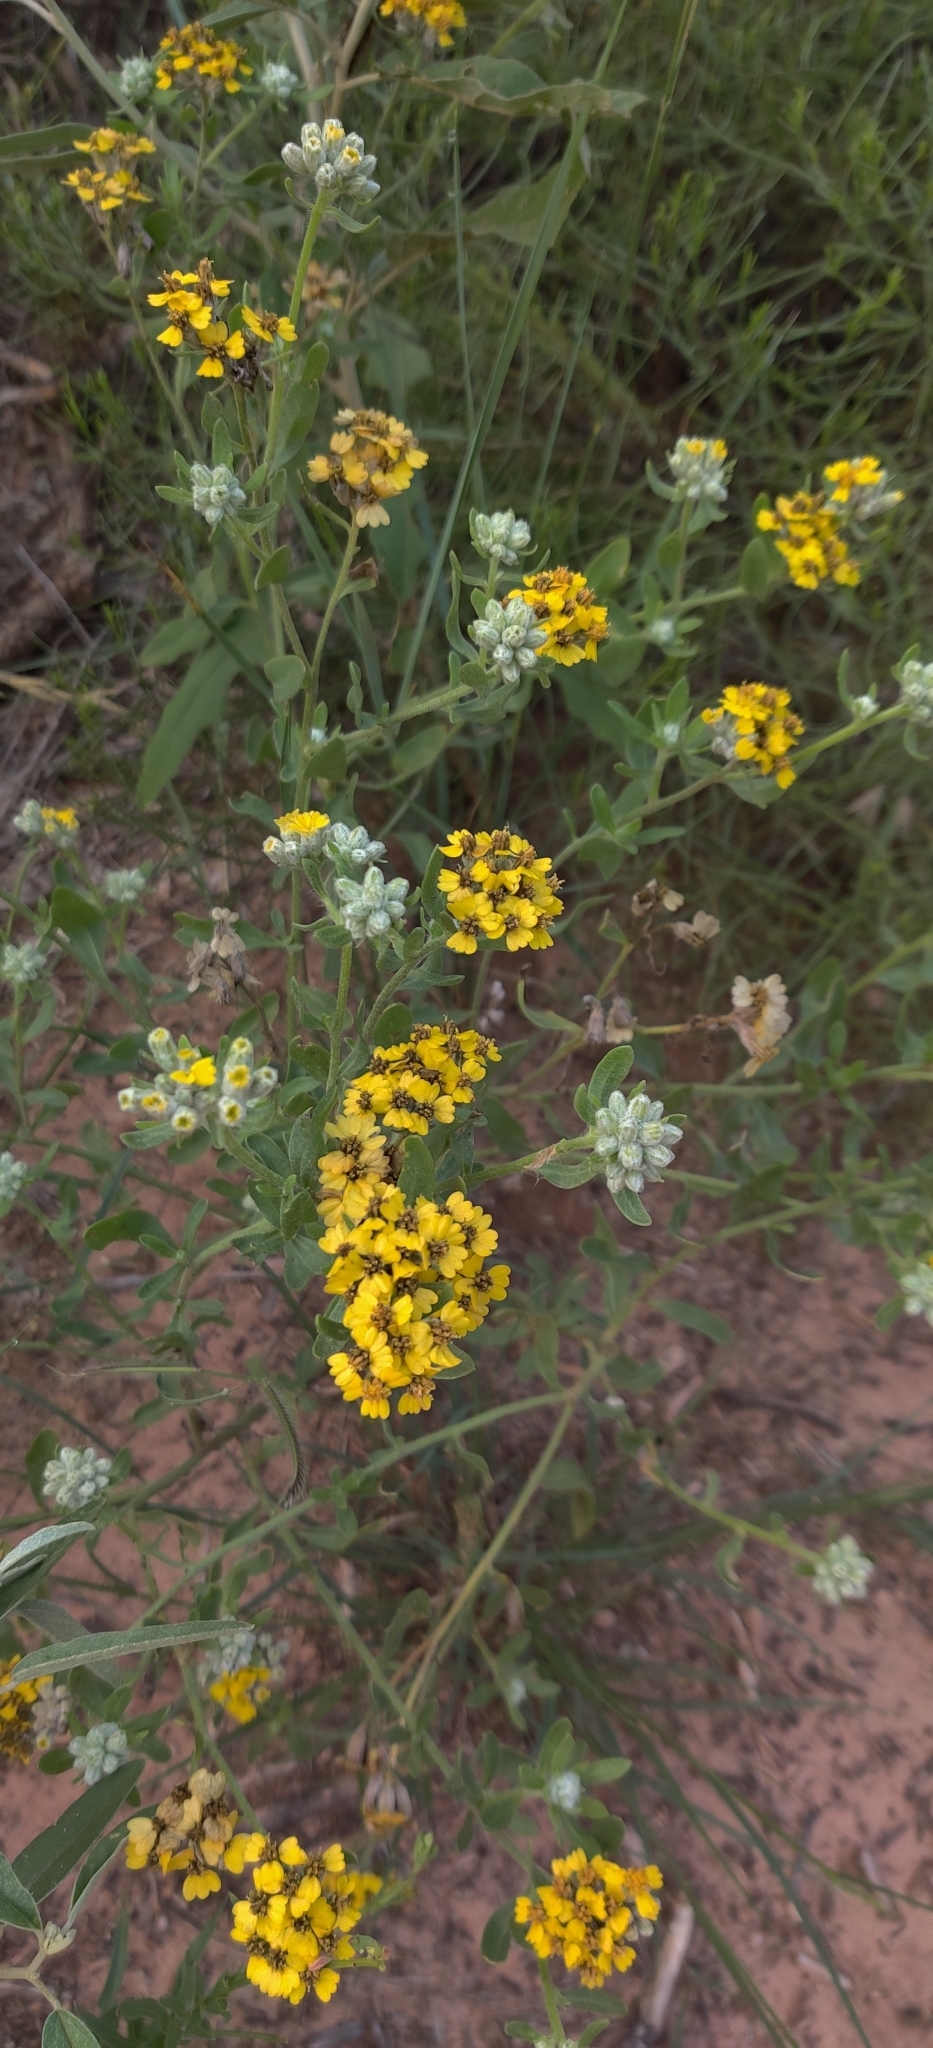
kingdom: Plantae
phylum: Tracheophyta
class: Magnoliopsida
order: Asterales
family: Asteraceae
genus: Psilostrophe
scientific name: Psilostrophe tagetina
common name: Marigold paper-flower
